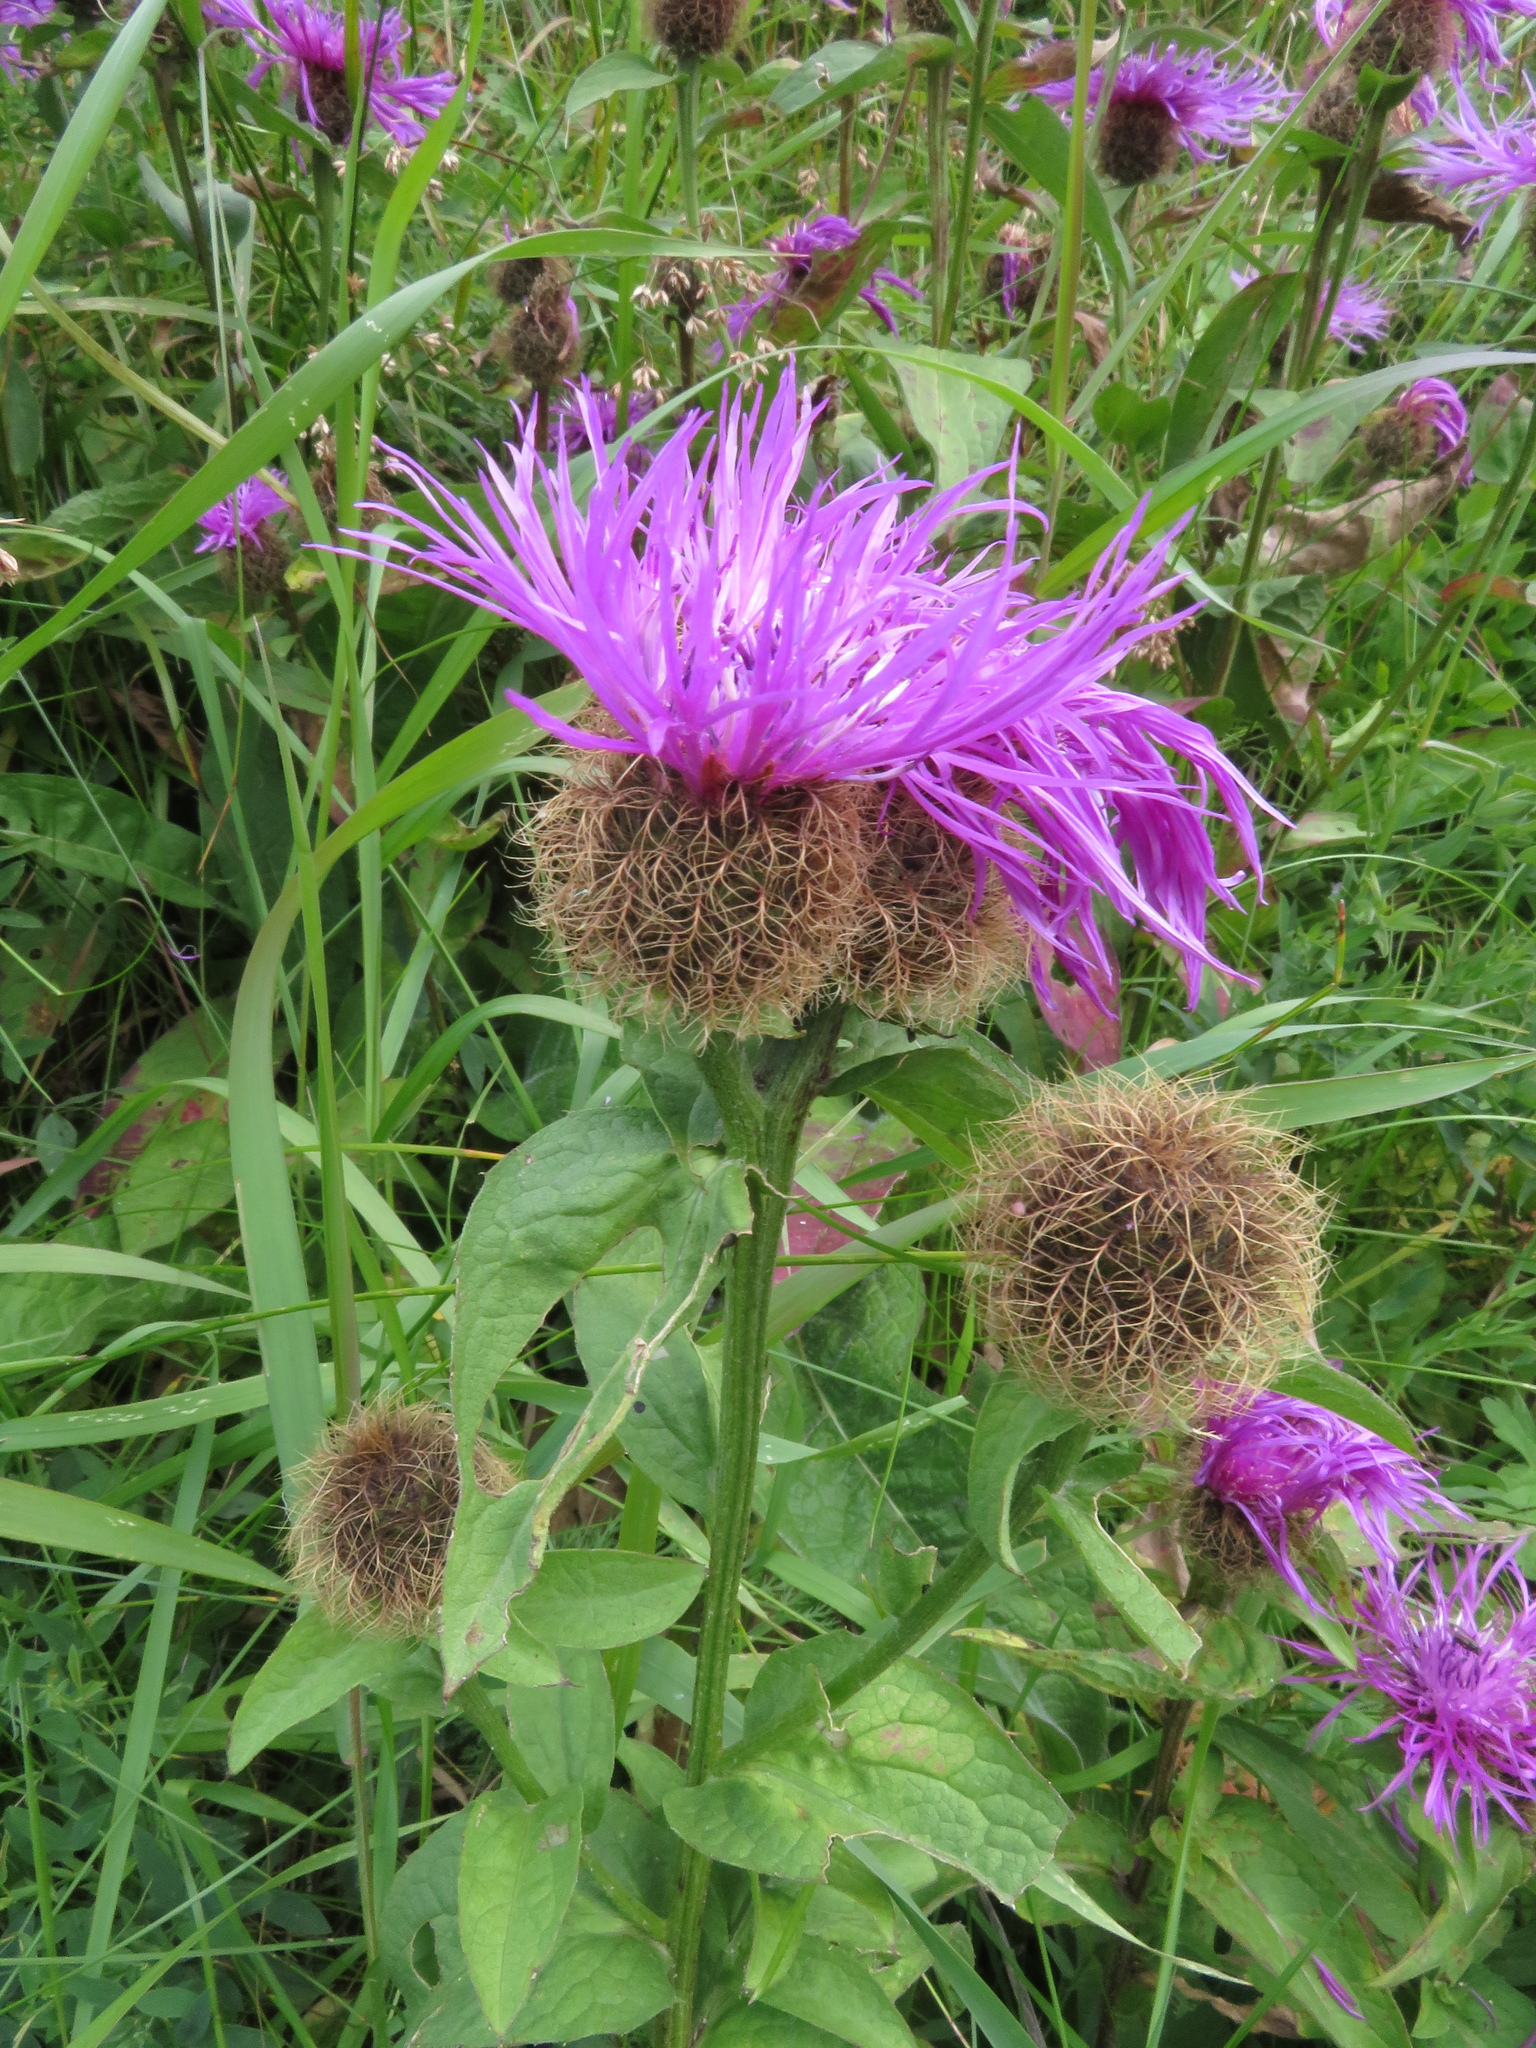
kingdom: Plantae
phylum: Tracheophyta
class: Magnoliopsida
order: Asterales
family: Asteraceae
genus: Centaurea
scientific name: Centaurea pseudophrygia
